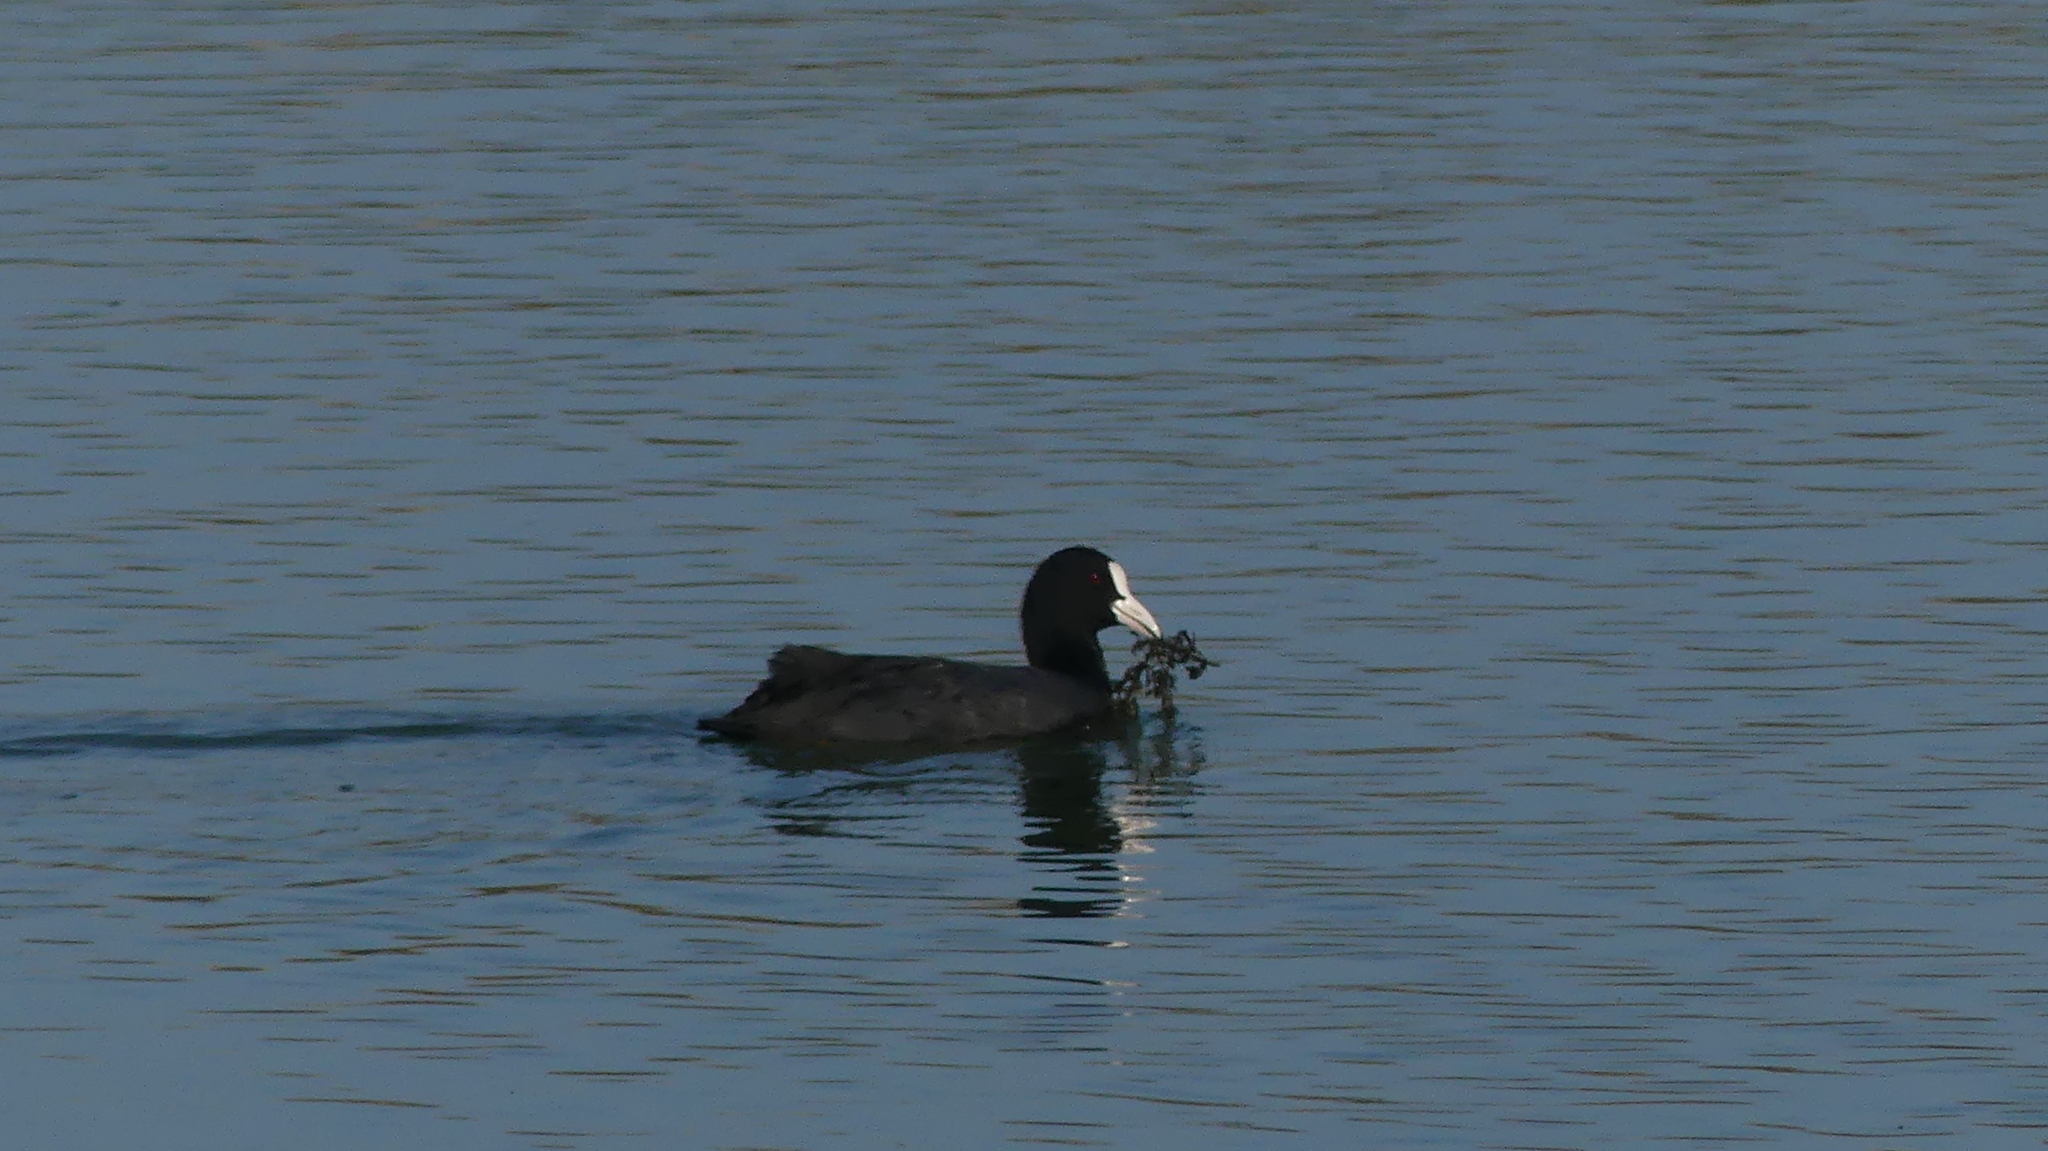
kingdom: Animalia
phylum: Chordata
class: Aves
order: Gruiformes
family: Rallidae
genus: Fulica
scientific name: Fulica atra
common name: Eurasian coot
